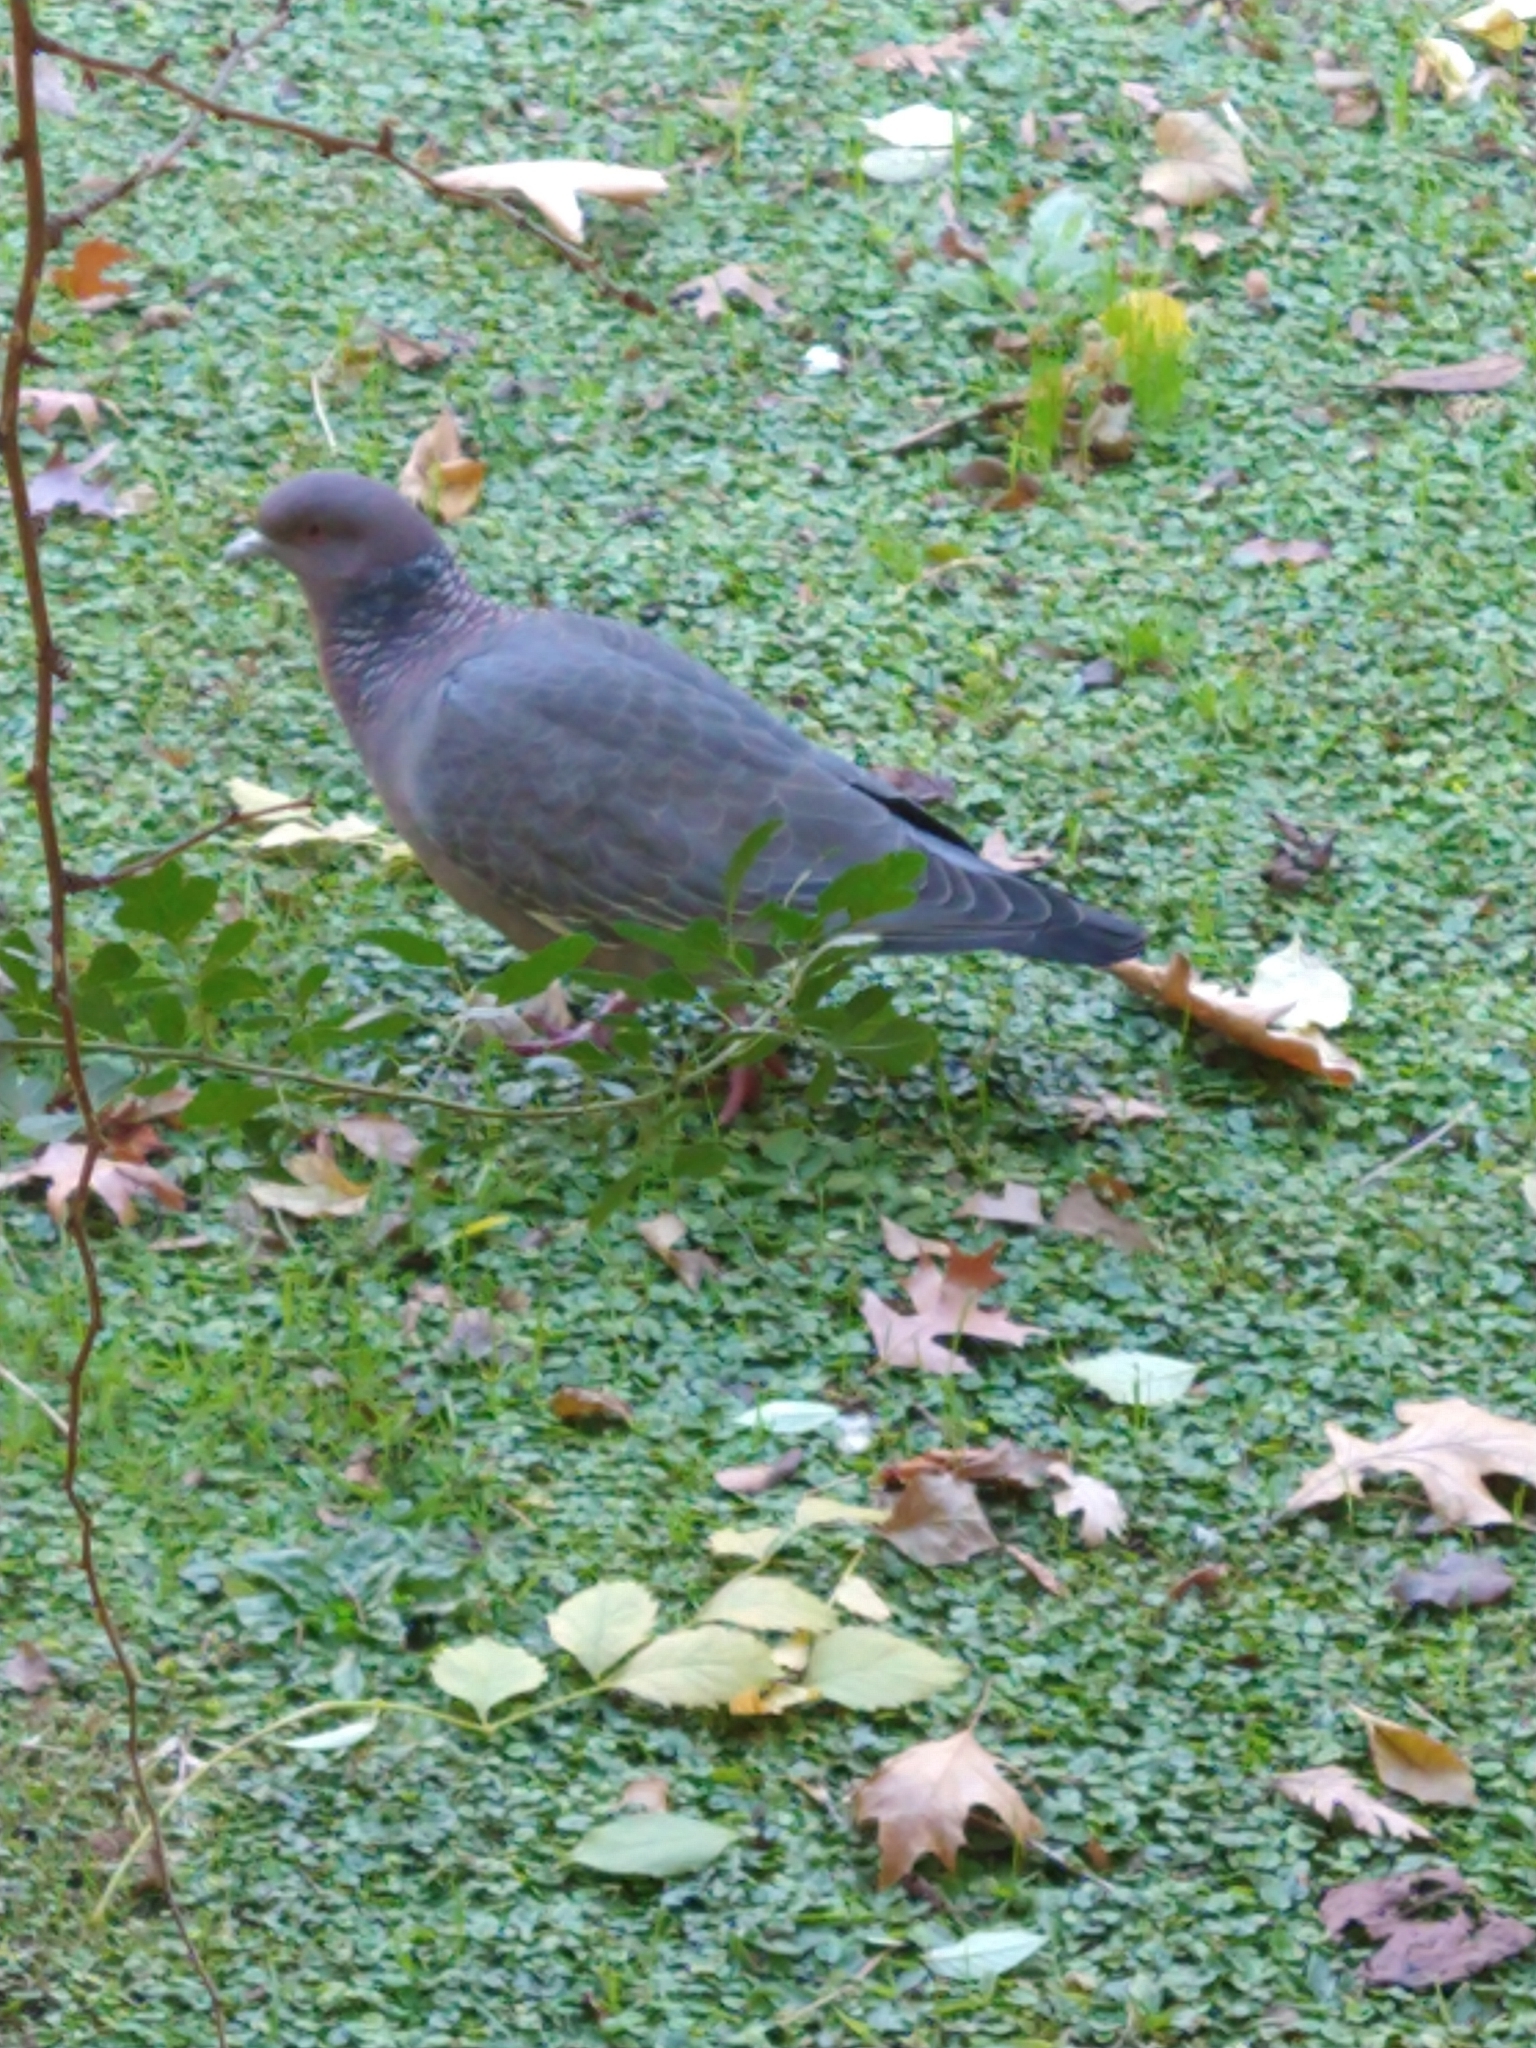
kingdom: Animalia
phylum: Chordata
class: Aves
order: Columbiformes
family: Columbidae
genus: Patagioenas
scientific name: Patagioenas picazuro
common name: Picazuro pigeon
